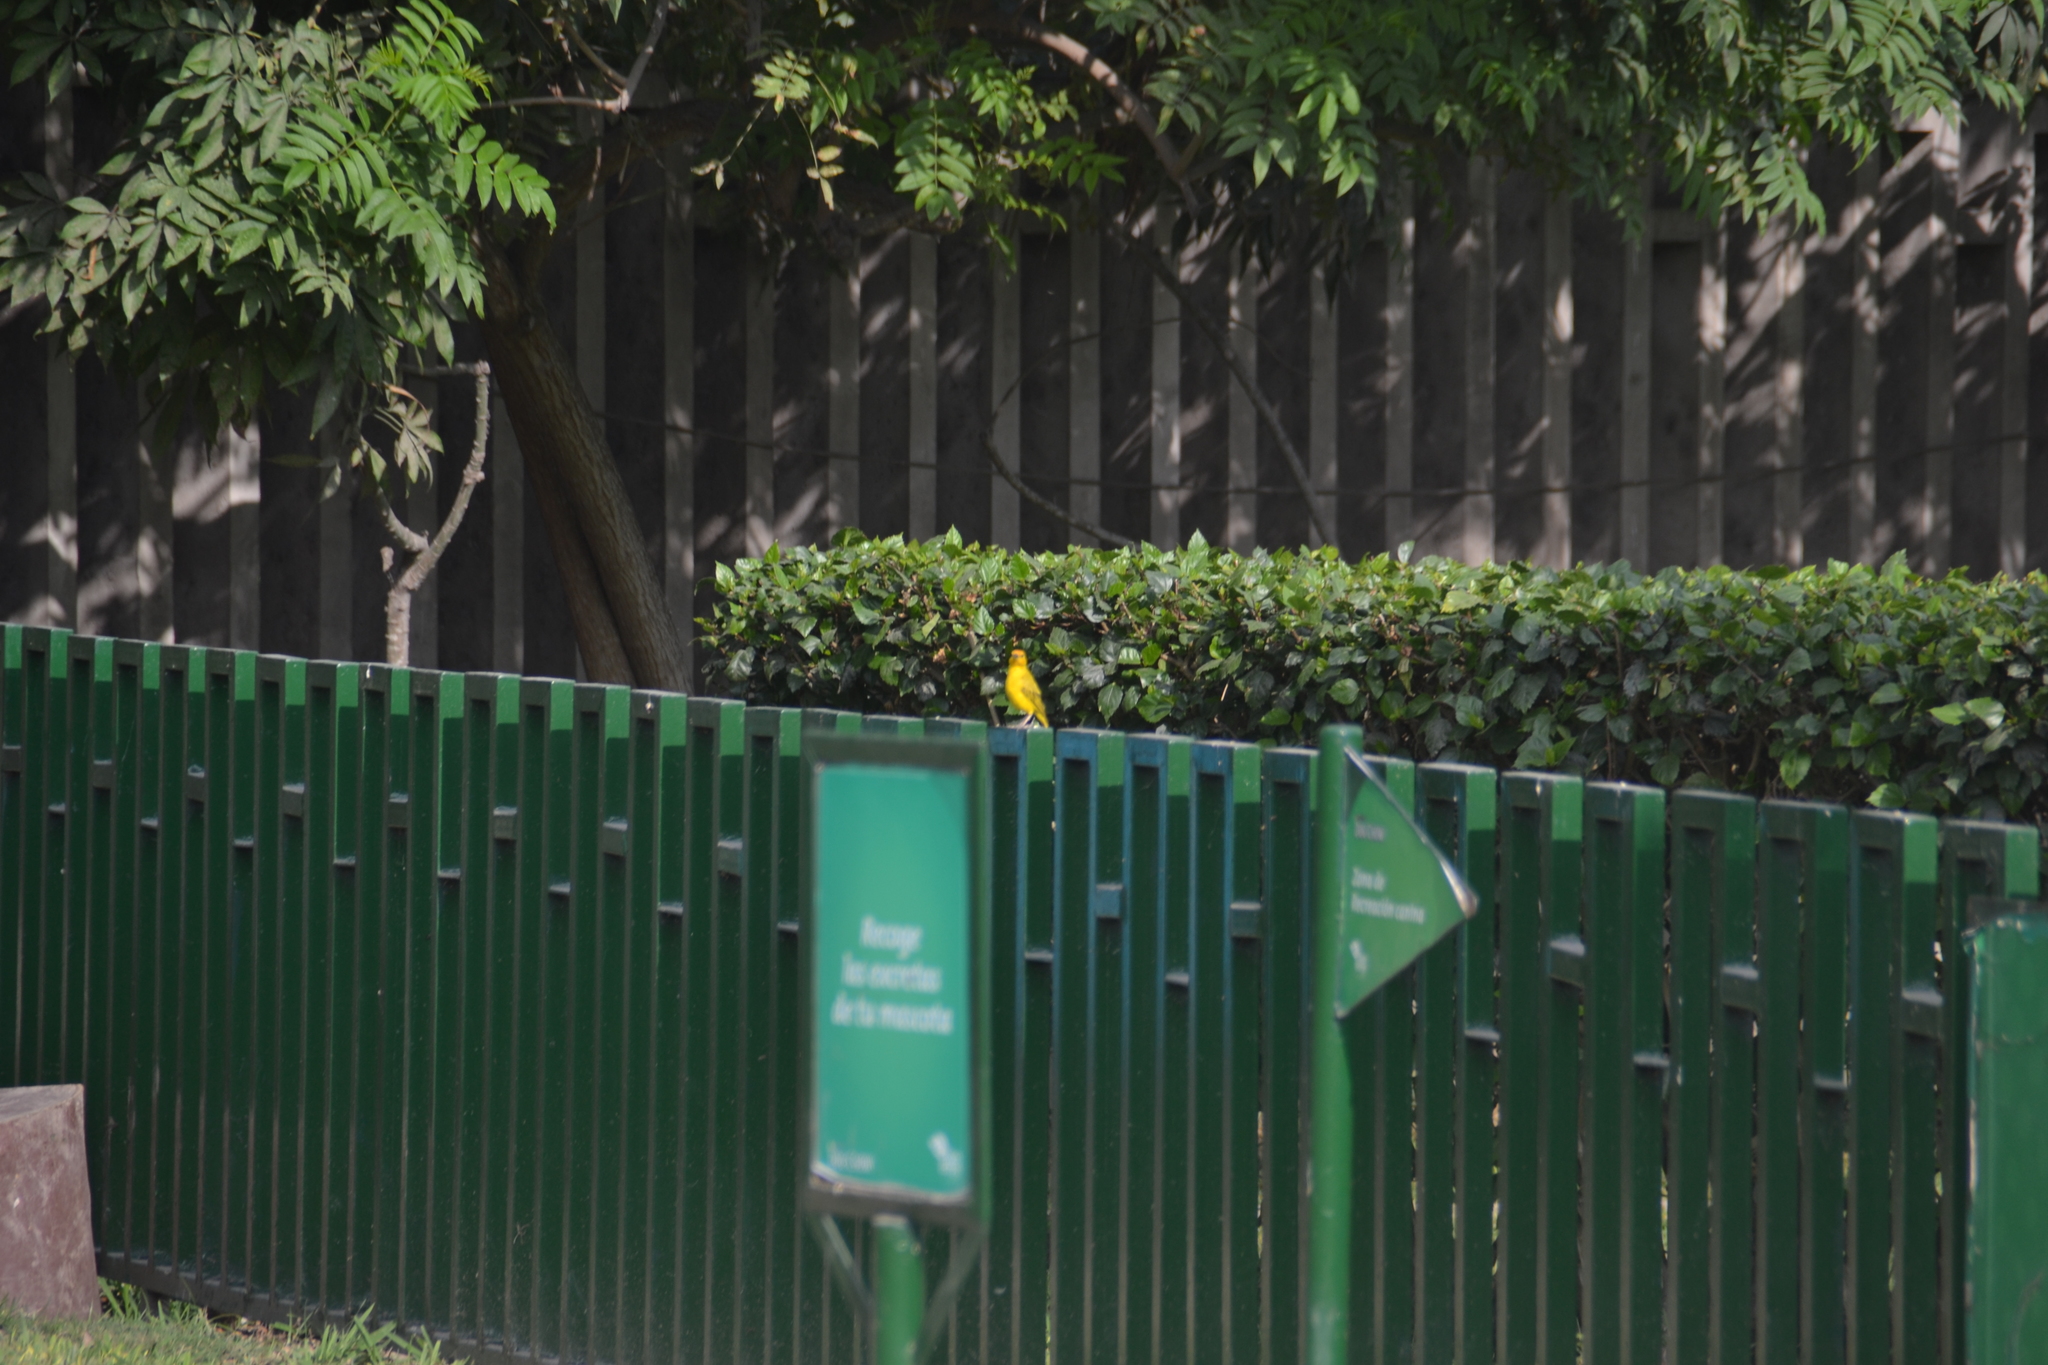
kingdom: Animalia
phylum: Chordata
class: Aves
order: Passeriformes
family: Thraupidae
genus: Sicalis
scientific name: Sicalis flaveola
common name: Saffron finch
